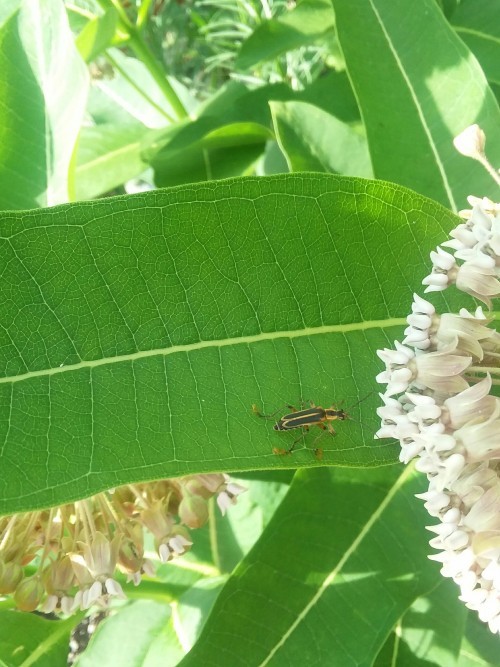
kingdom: Animalia
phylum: Arthropoda
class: Insecta
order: Coleoptera
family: Cantharidae
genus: Chauliognathus
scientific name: Chauliognathus marginatus
